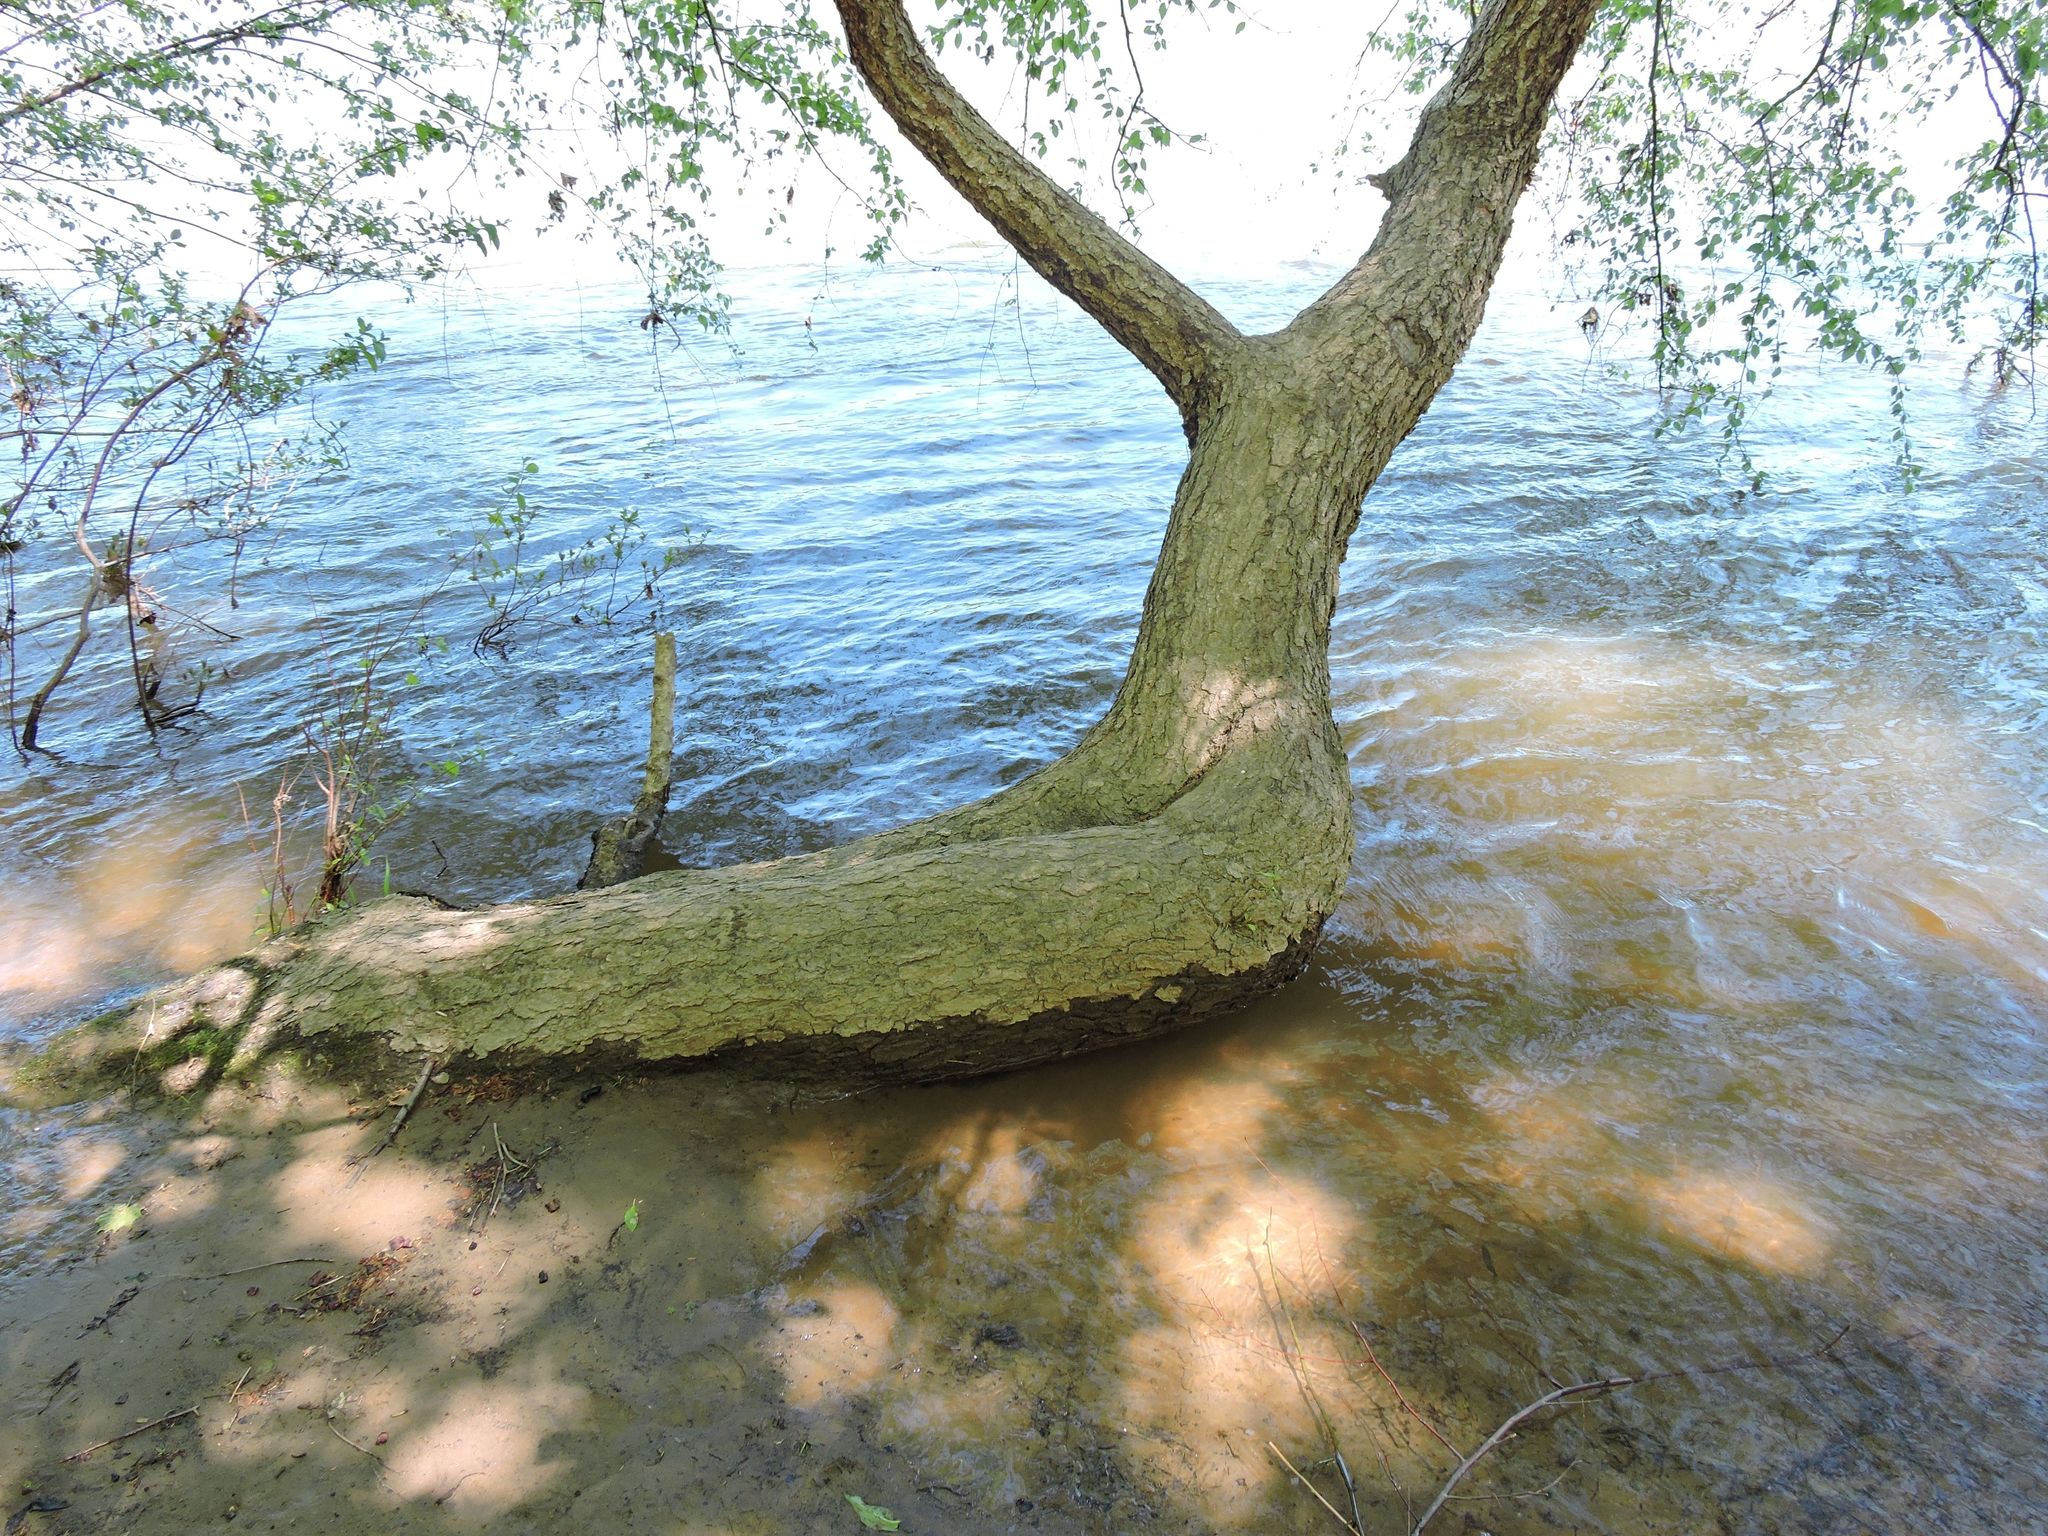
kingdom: Plantae
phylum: Tracheophyta
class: Magnoliopsida
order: Fagales
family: Betulaceae
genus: Betula
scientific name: Betula nigra
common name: Black birch
